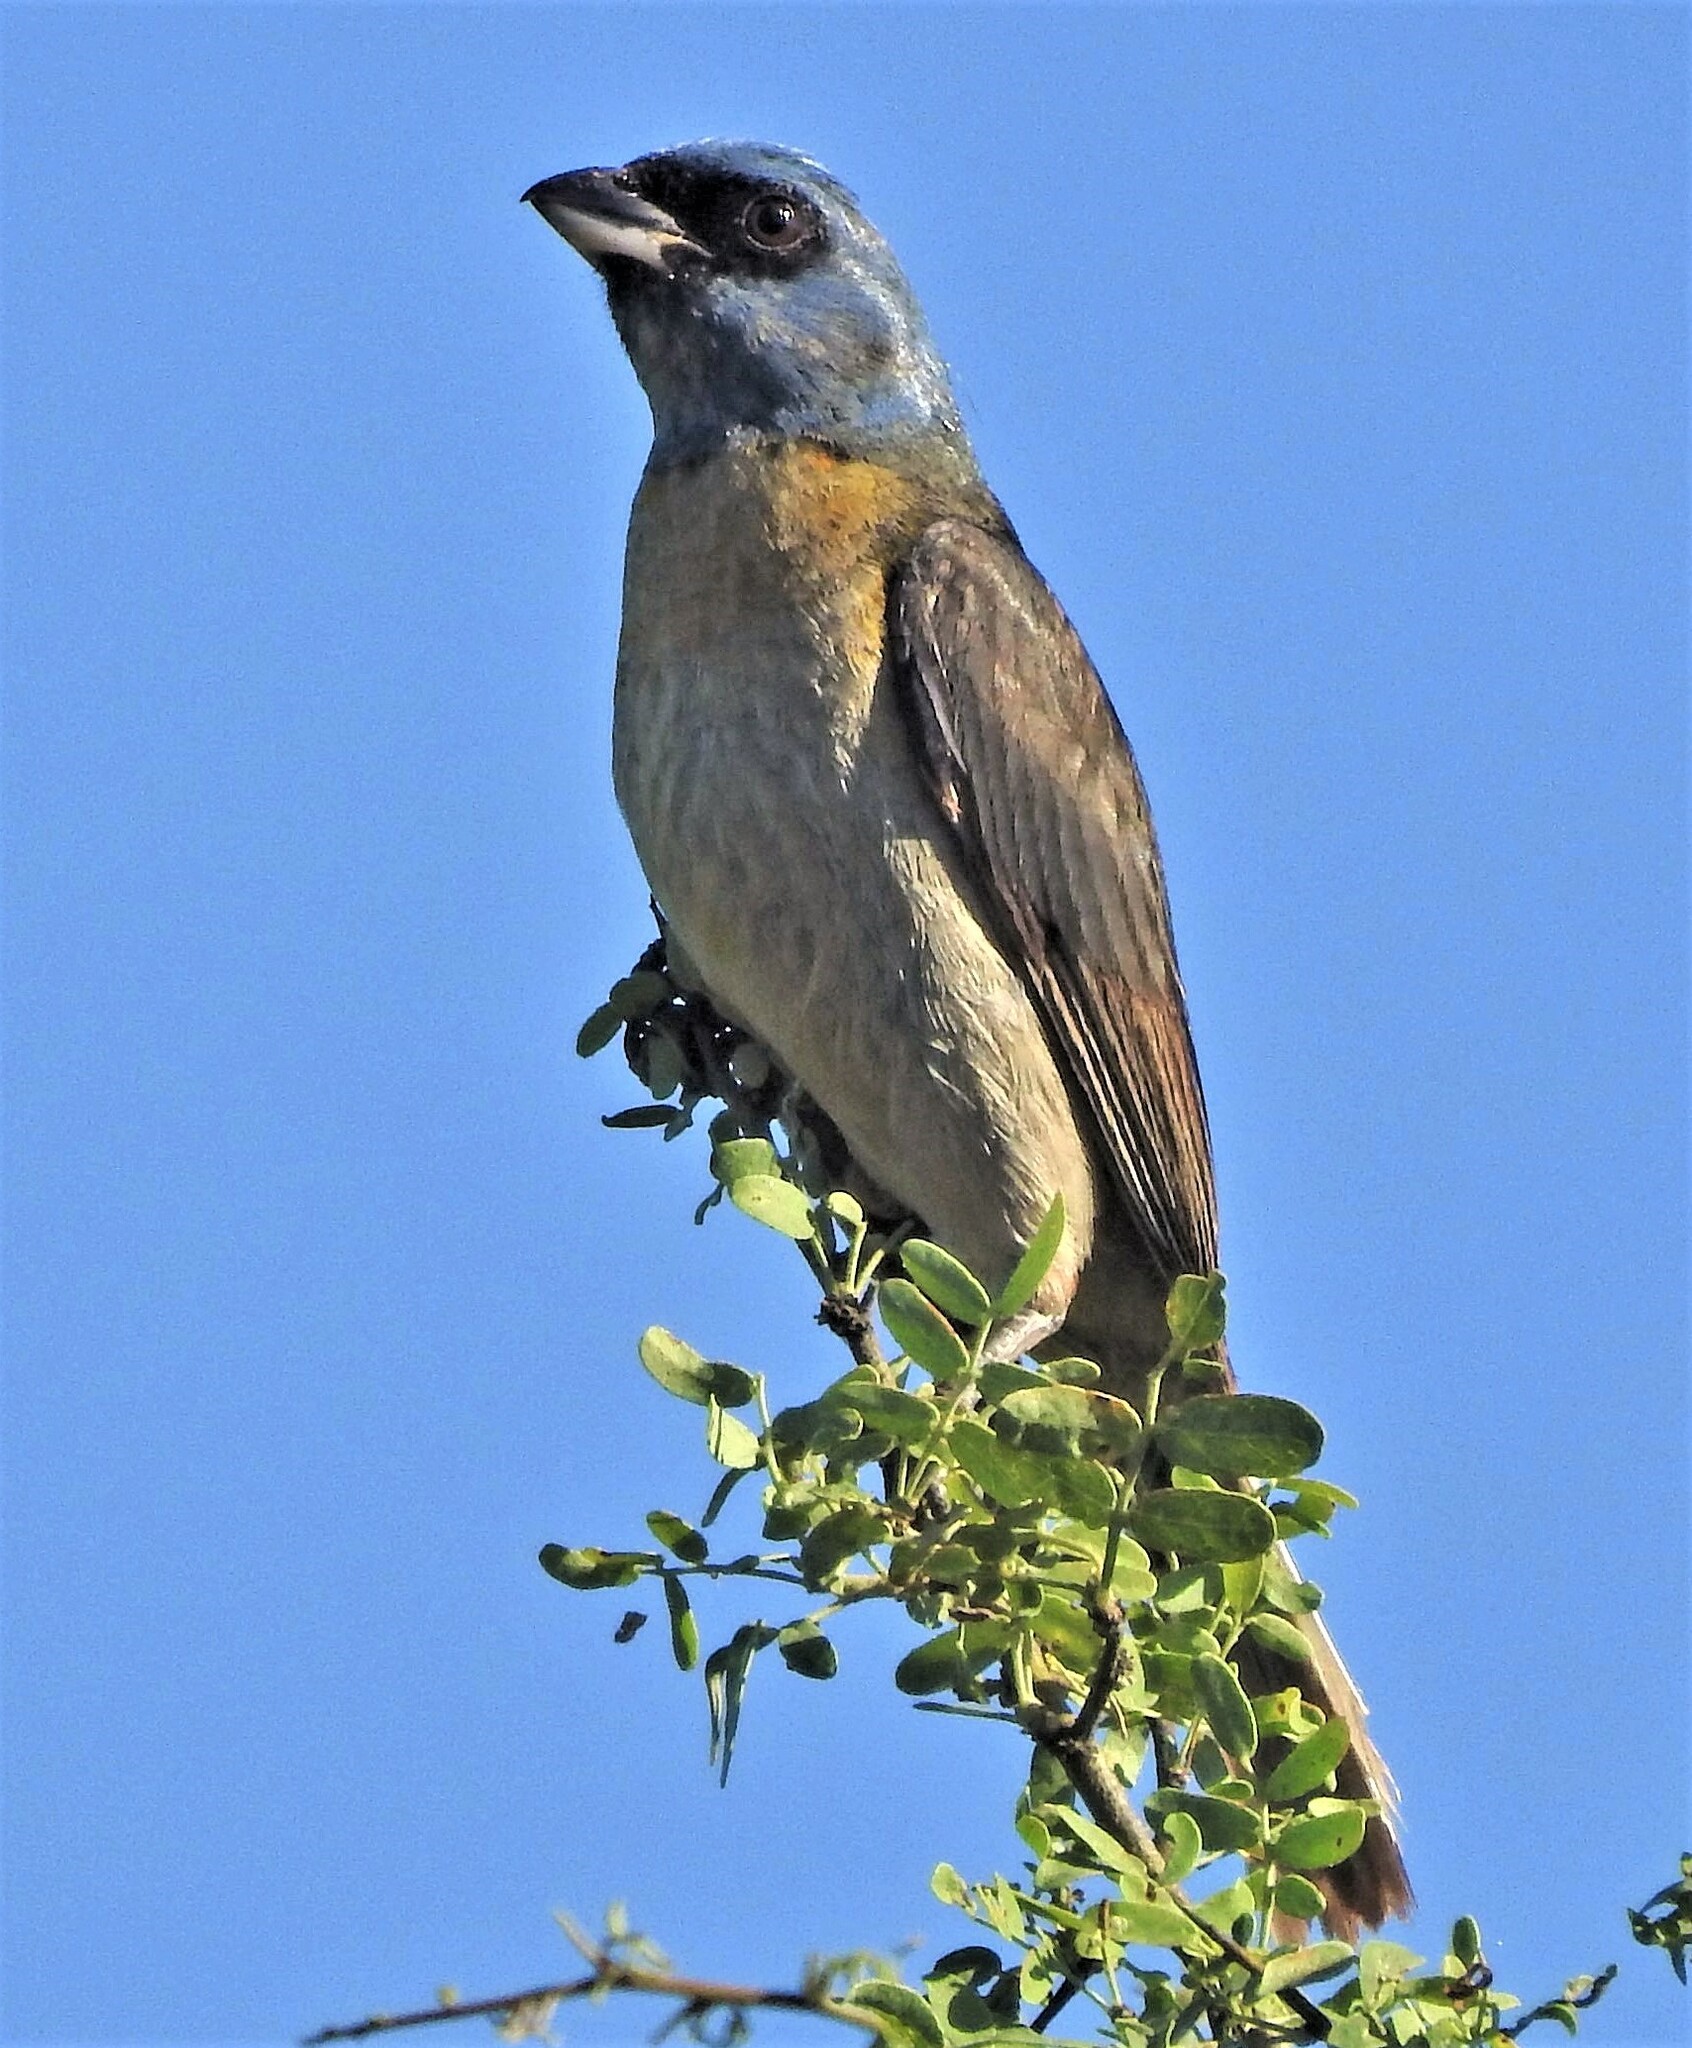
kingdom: Animalia
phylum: Chordata
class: Aves
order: Passeriformes
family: Thraupidae
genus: Rauenia
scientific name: Rauenia bonariensis
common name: Blue-and-yellow tanager
